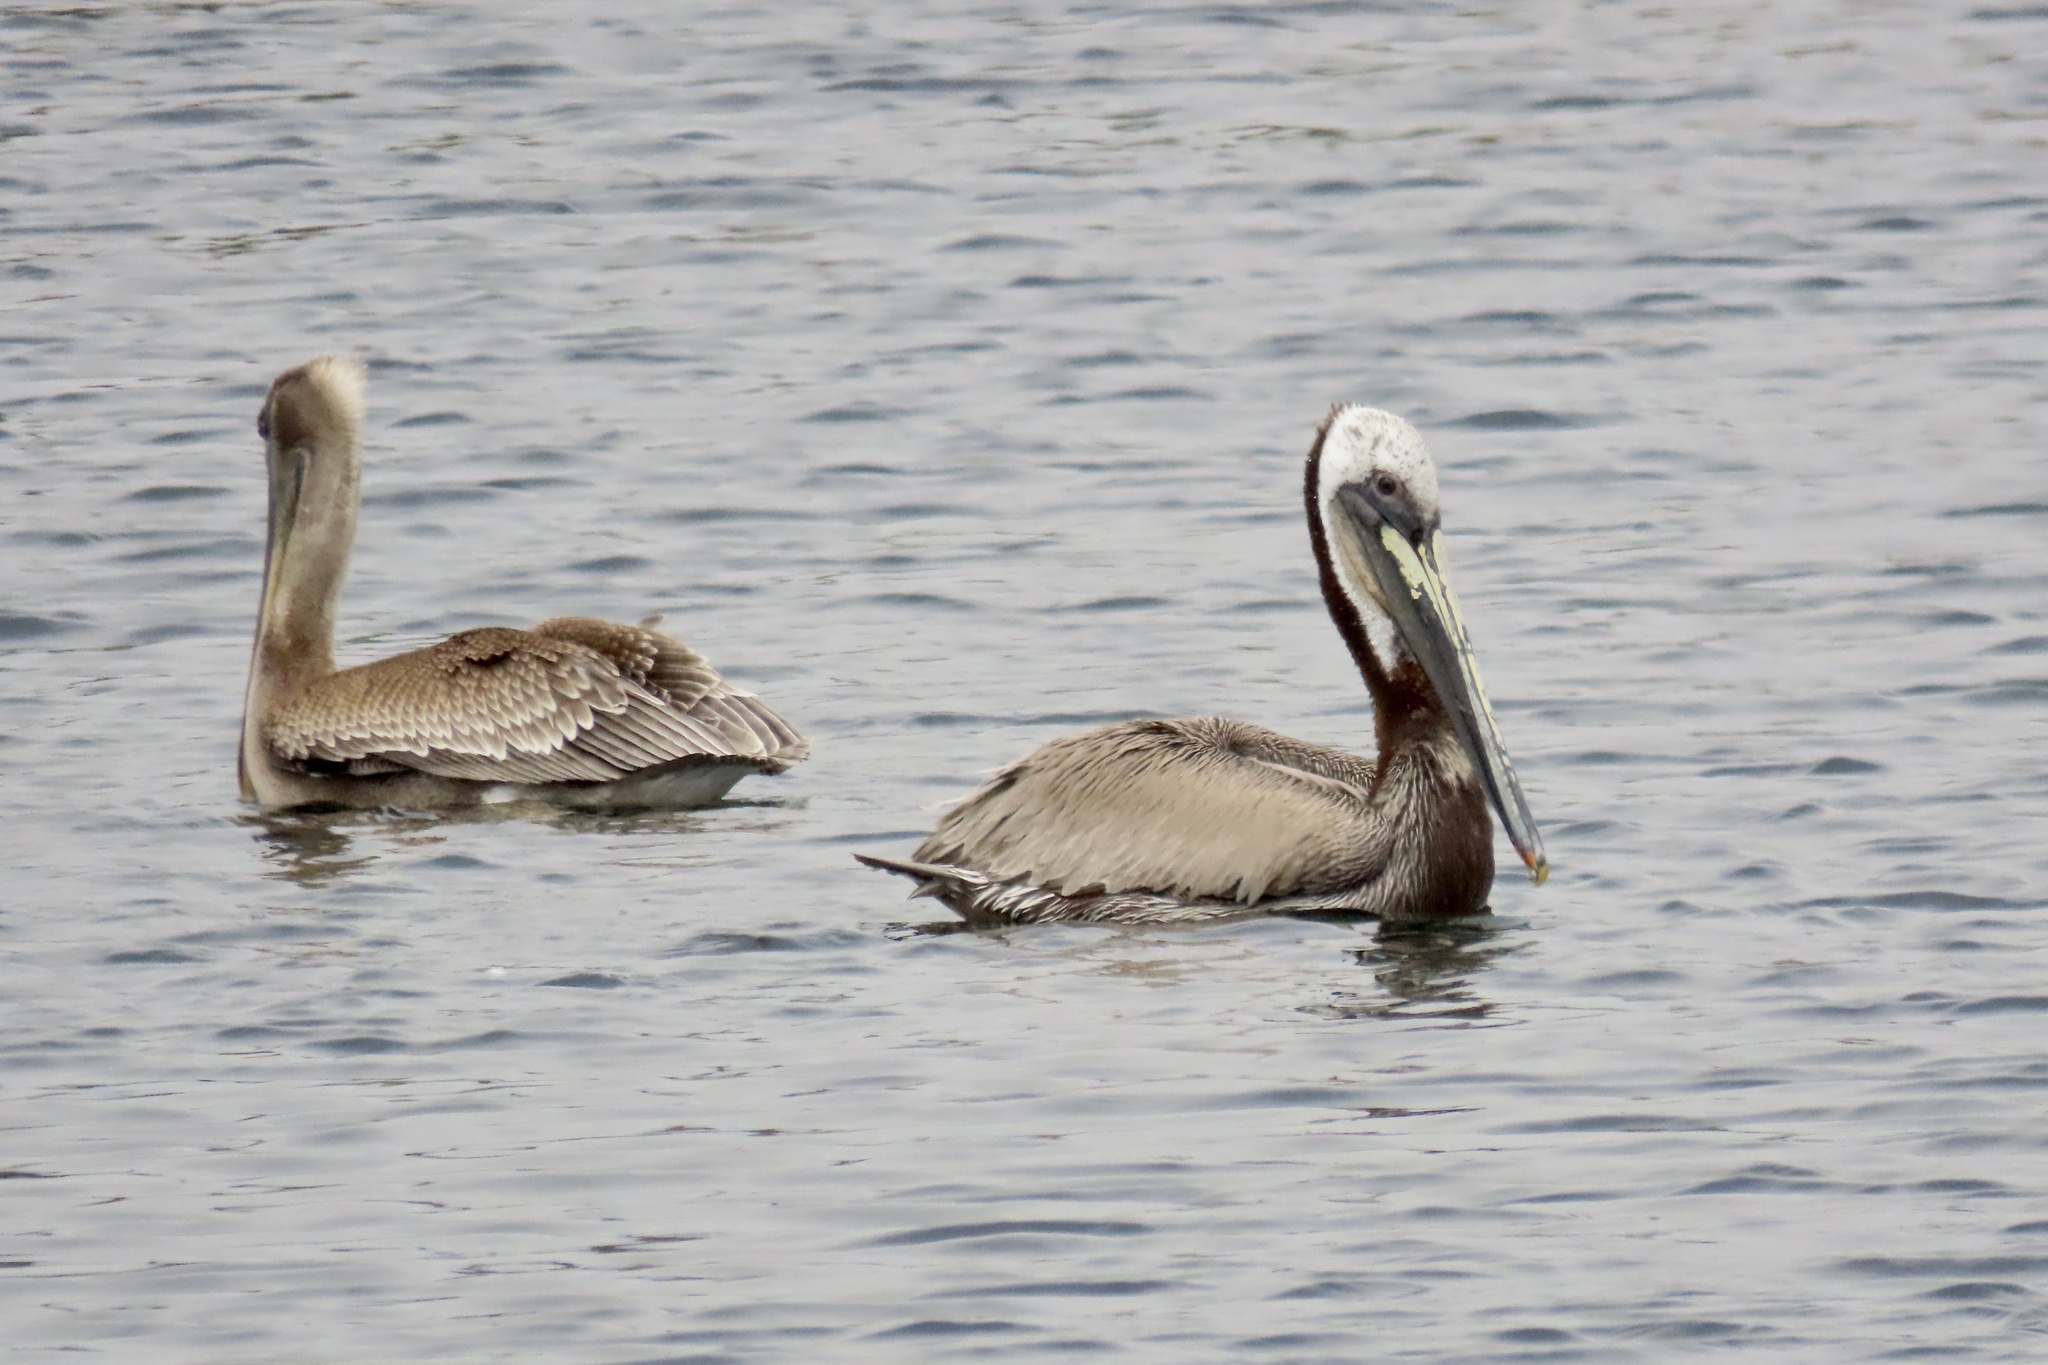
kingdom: Animalia
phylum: Chordata
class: Aves
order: Pelecaniformes
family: Pelecanidae
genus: Pelecanus
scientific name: Pelecanus occidentalis
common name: Brown pelican
